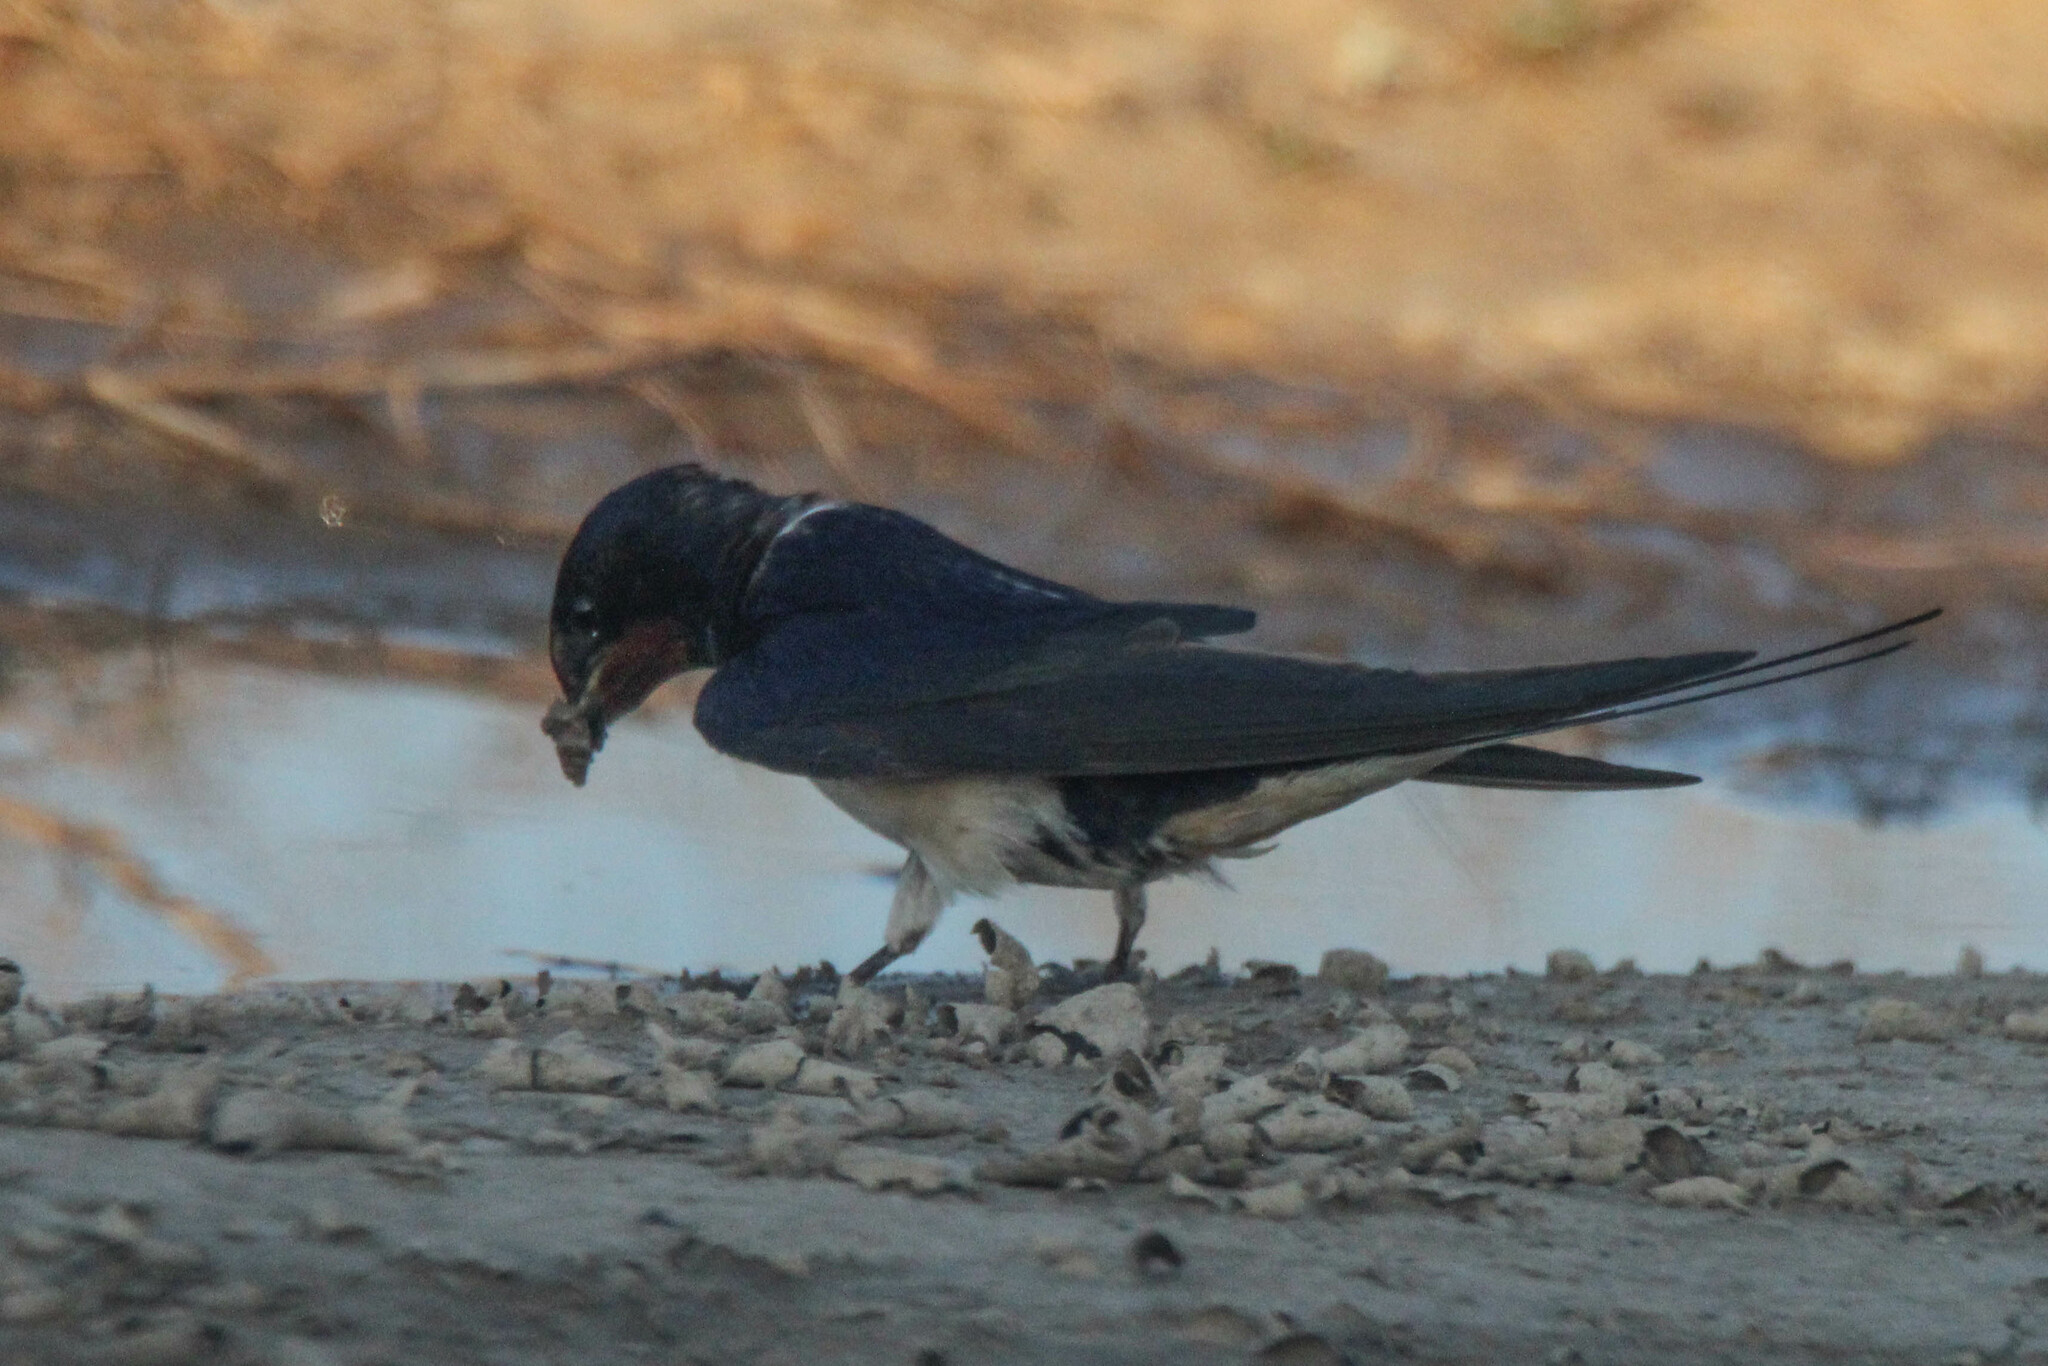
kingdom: Animalia
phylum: Chordata
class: Aves
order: Passeriformes
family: Hirundinidae
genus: Hirundo
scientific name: Hirundo rustica
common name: Barn swallow
